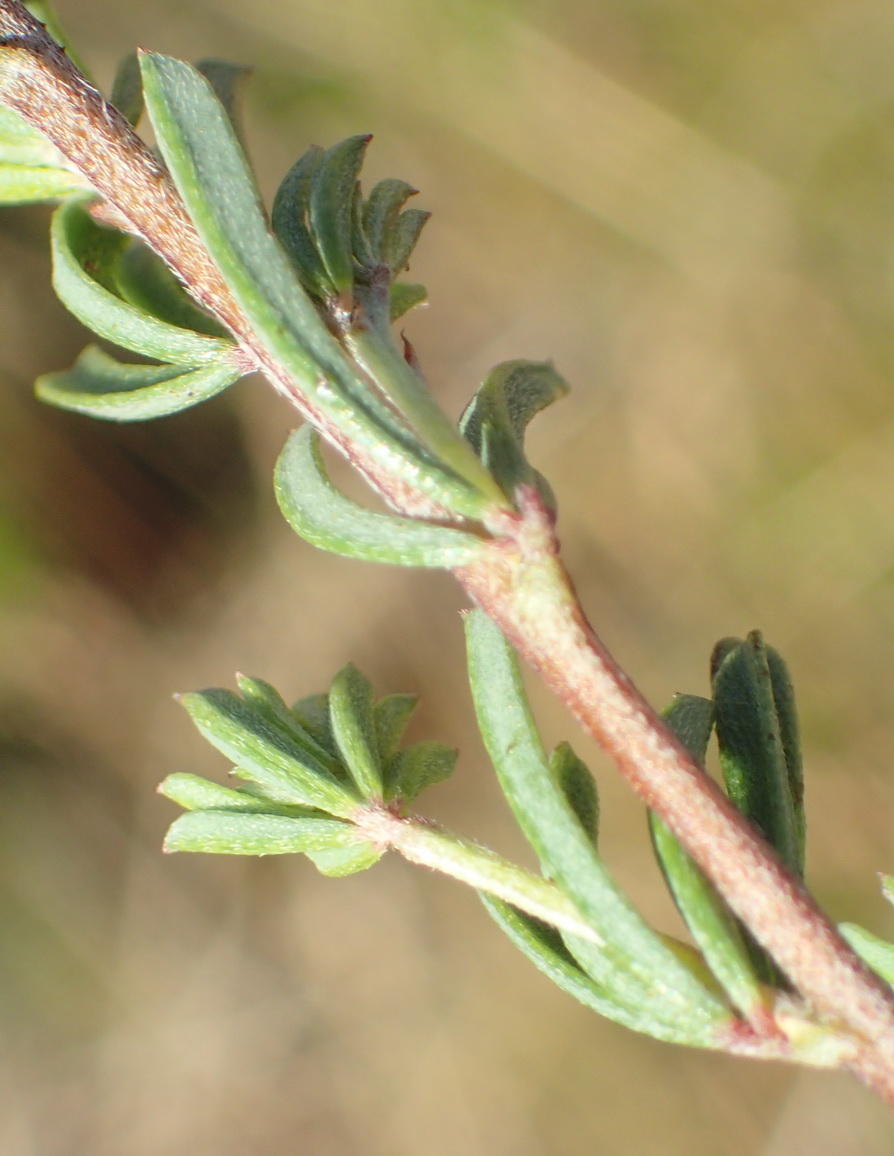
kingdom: Plantae
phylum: Tracheophyta
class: Magnoliopsida
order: Fabales
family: Fabaceae
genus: Indigofera
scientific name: Indigofera pappei
